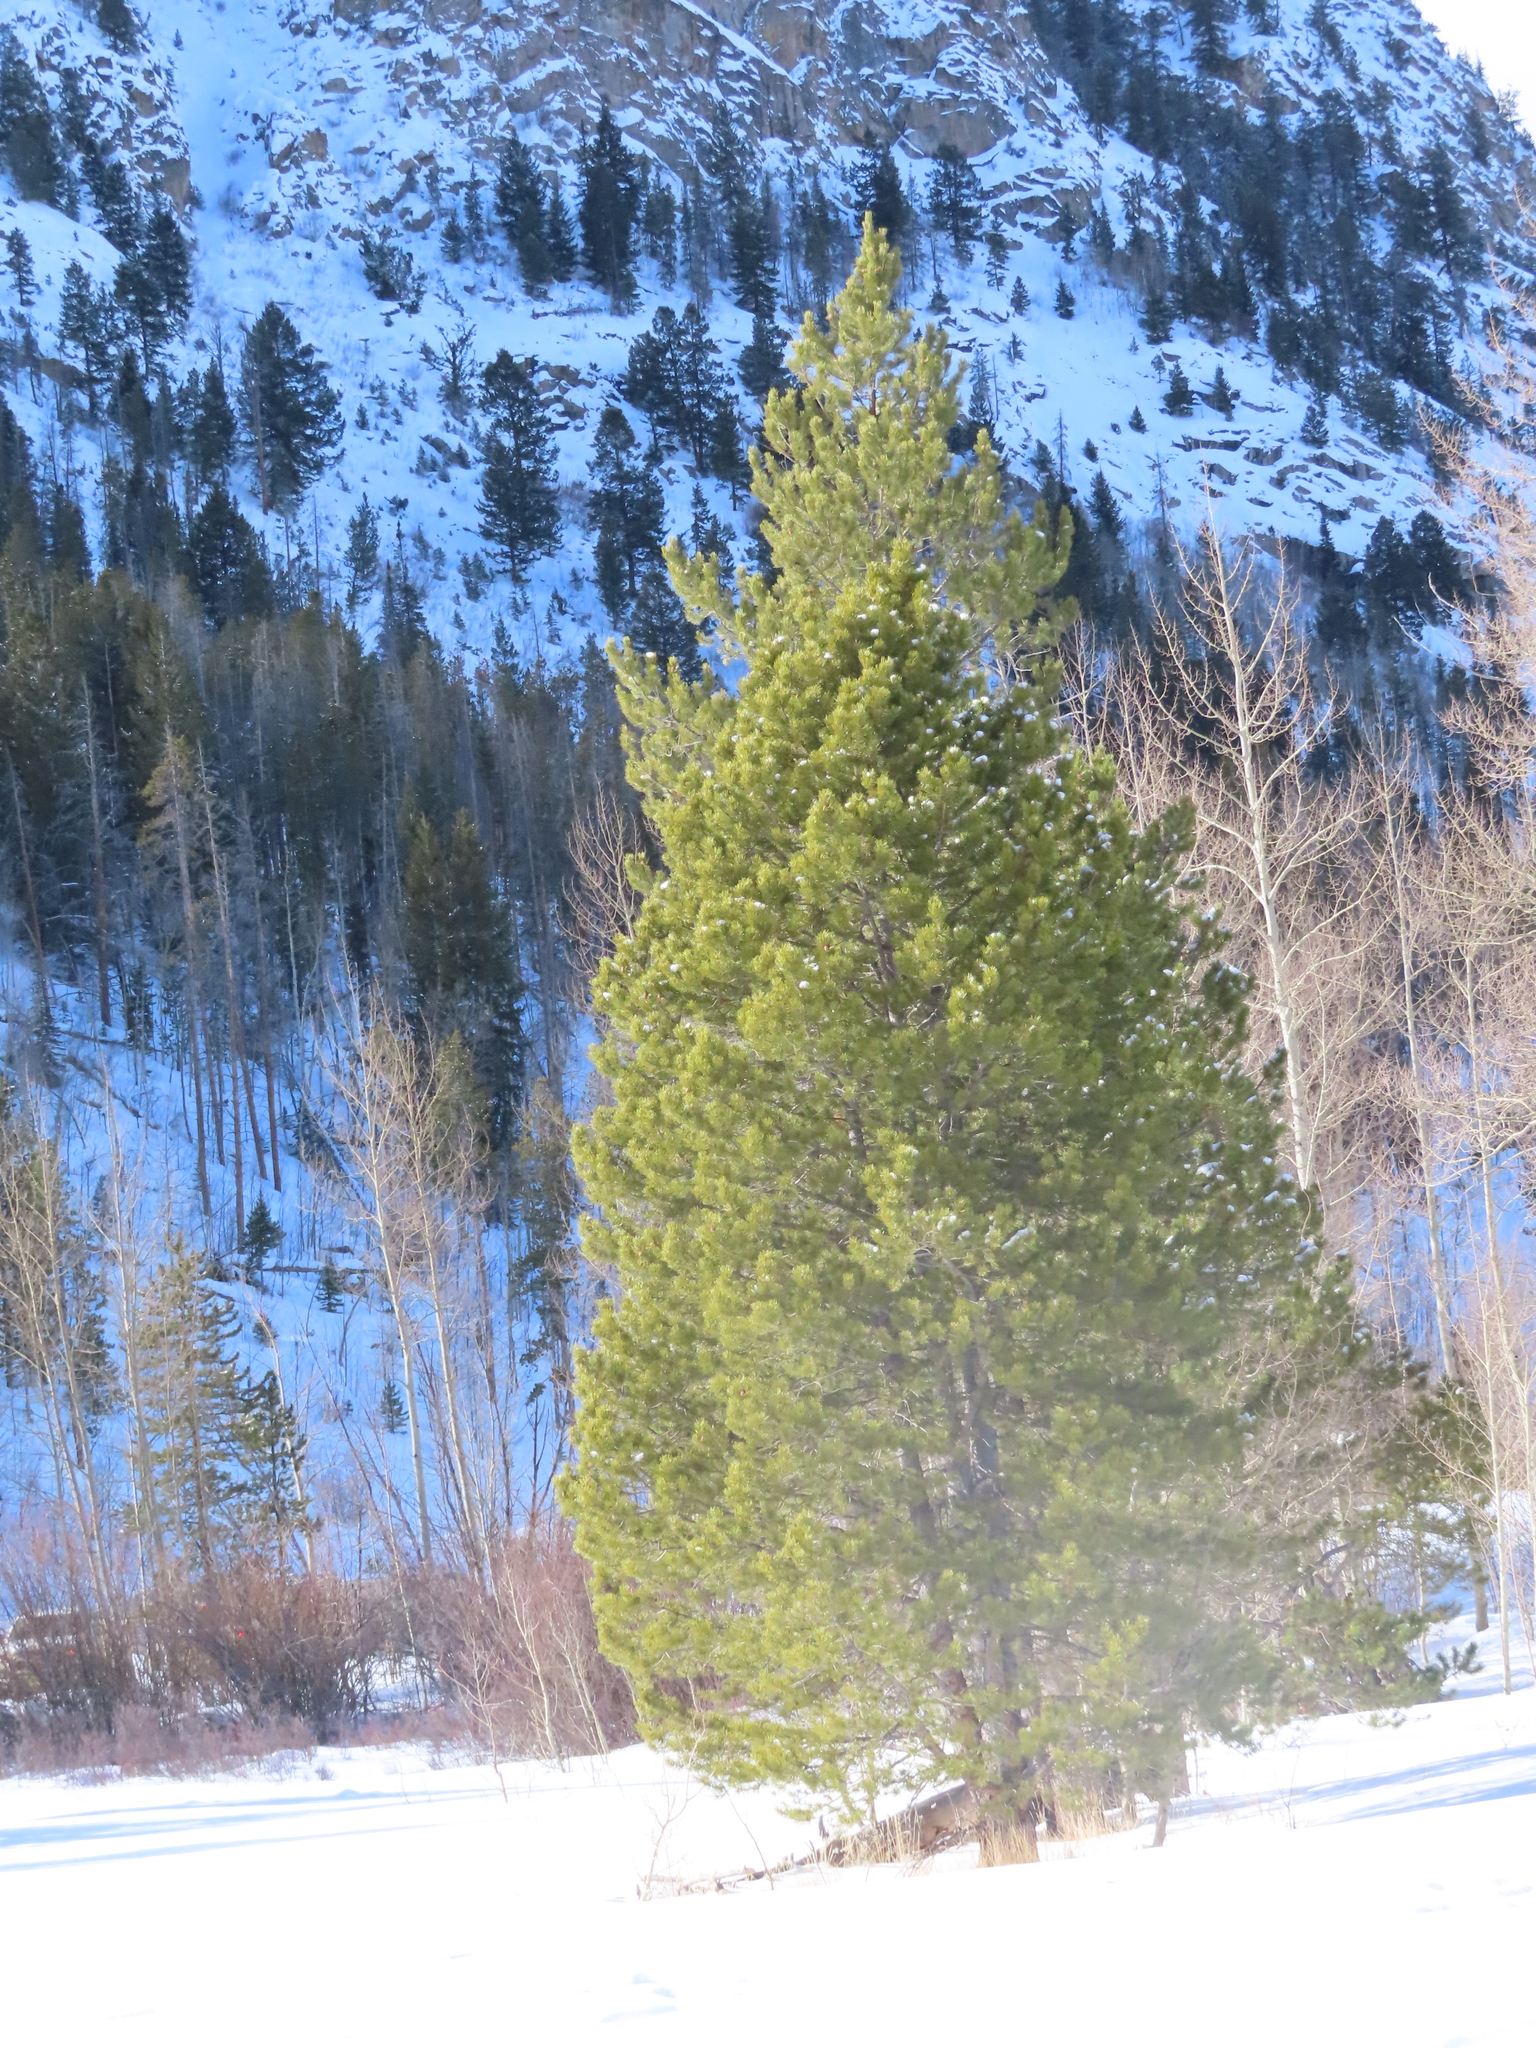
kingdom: Plantae
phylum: Tracheophyta
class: Pinopsida
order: Pinales
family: Pinaceae
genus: Pinus
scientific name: Pinus contorta
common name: Lodgepole pine
